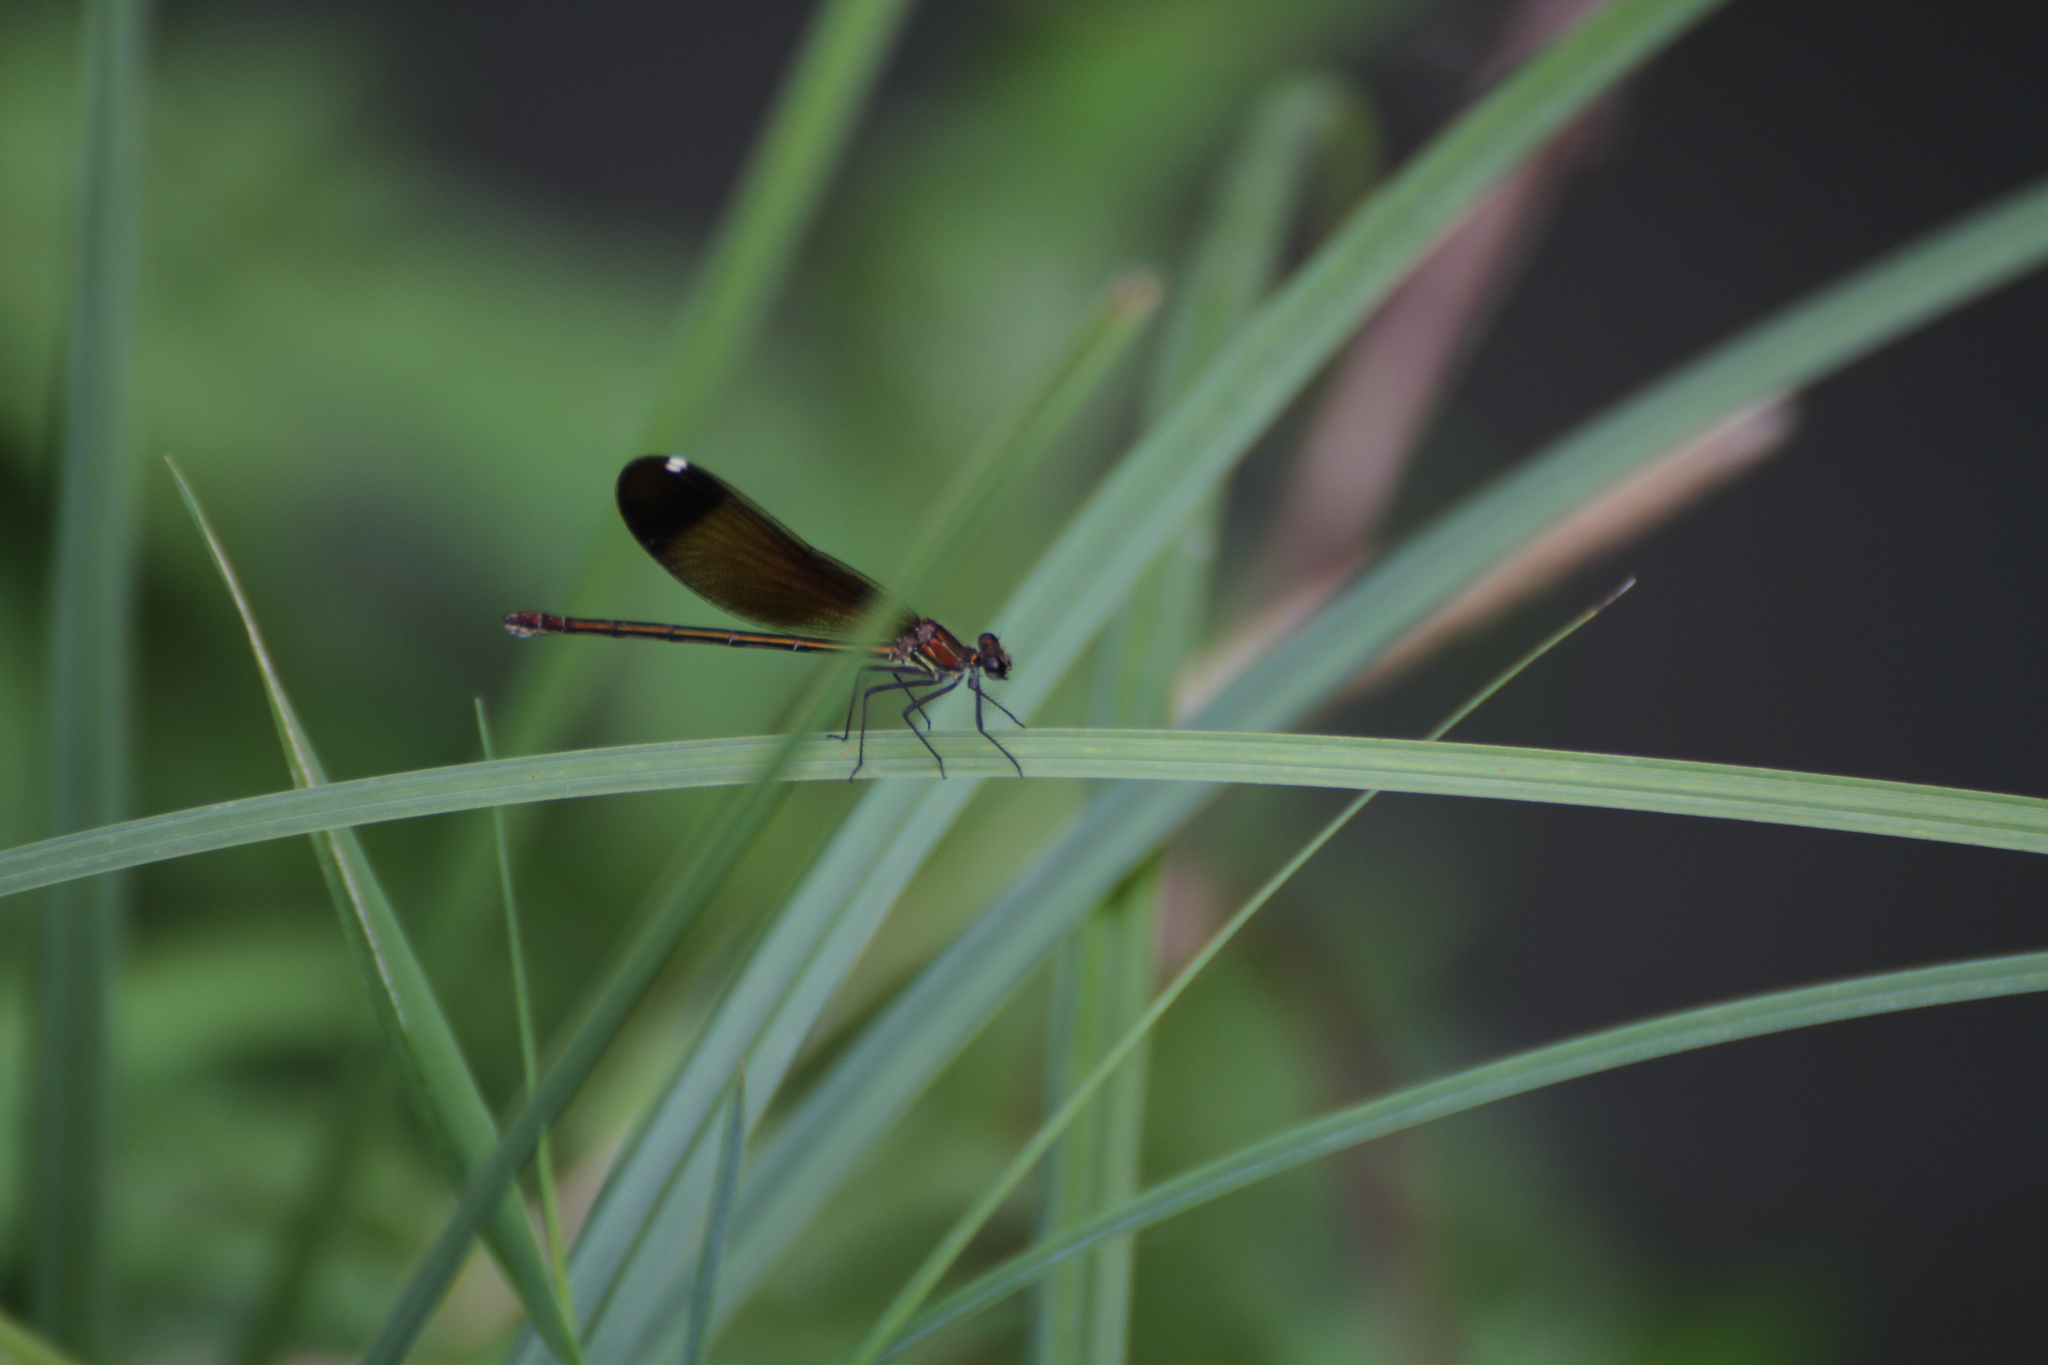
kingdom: Animalia
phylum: Arthropoda
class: Insecta
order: Odonata
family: Calopterygidae
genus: Calopteryx
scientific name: Calopteryx haemorrhoidalis
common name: Copper demoiselle
